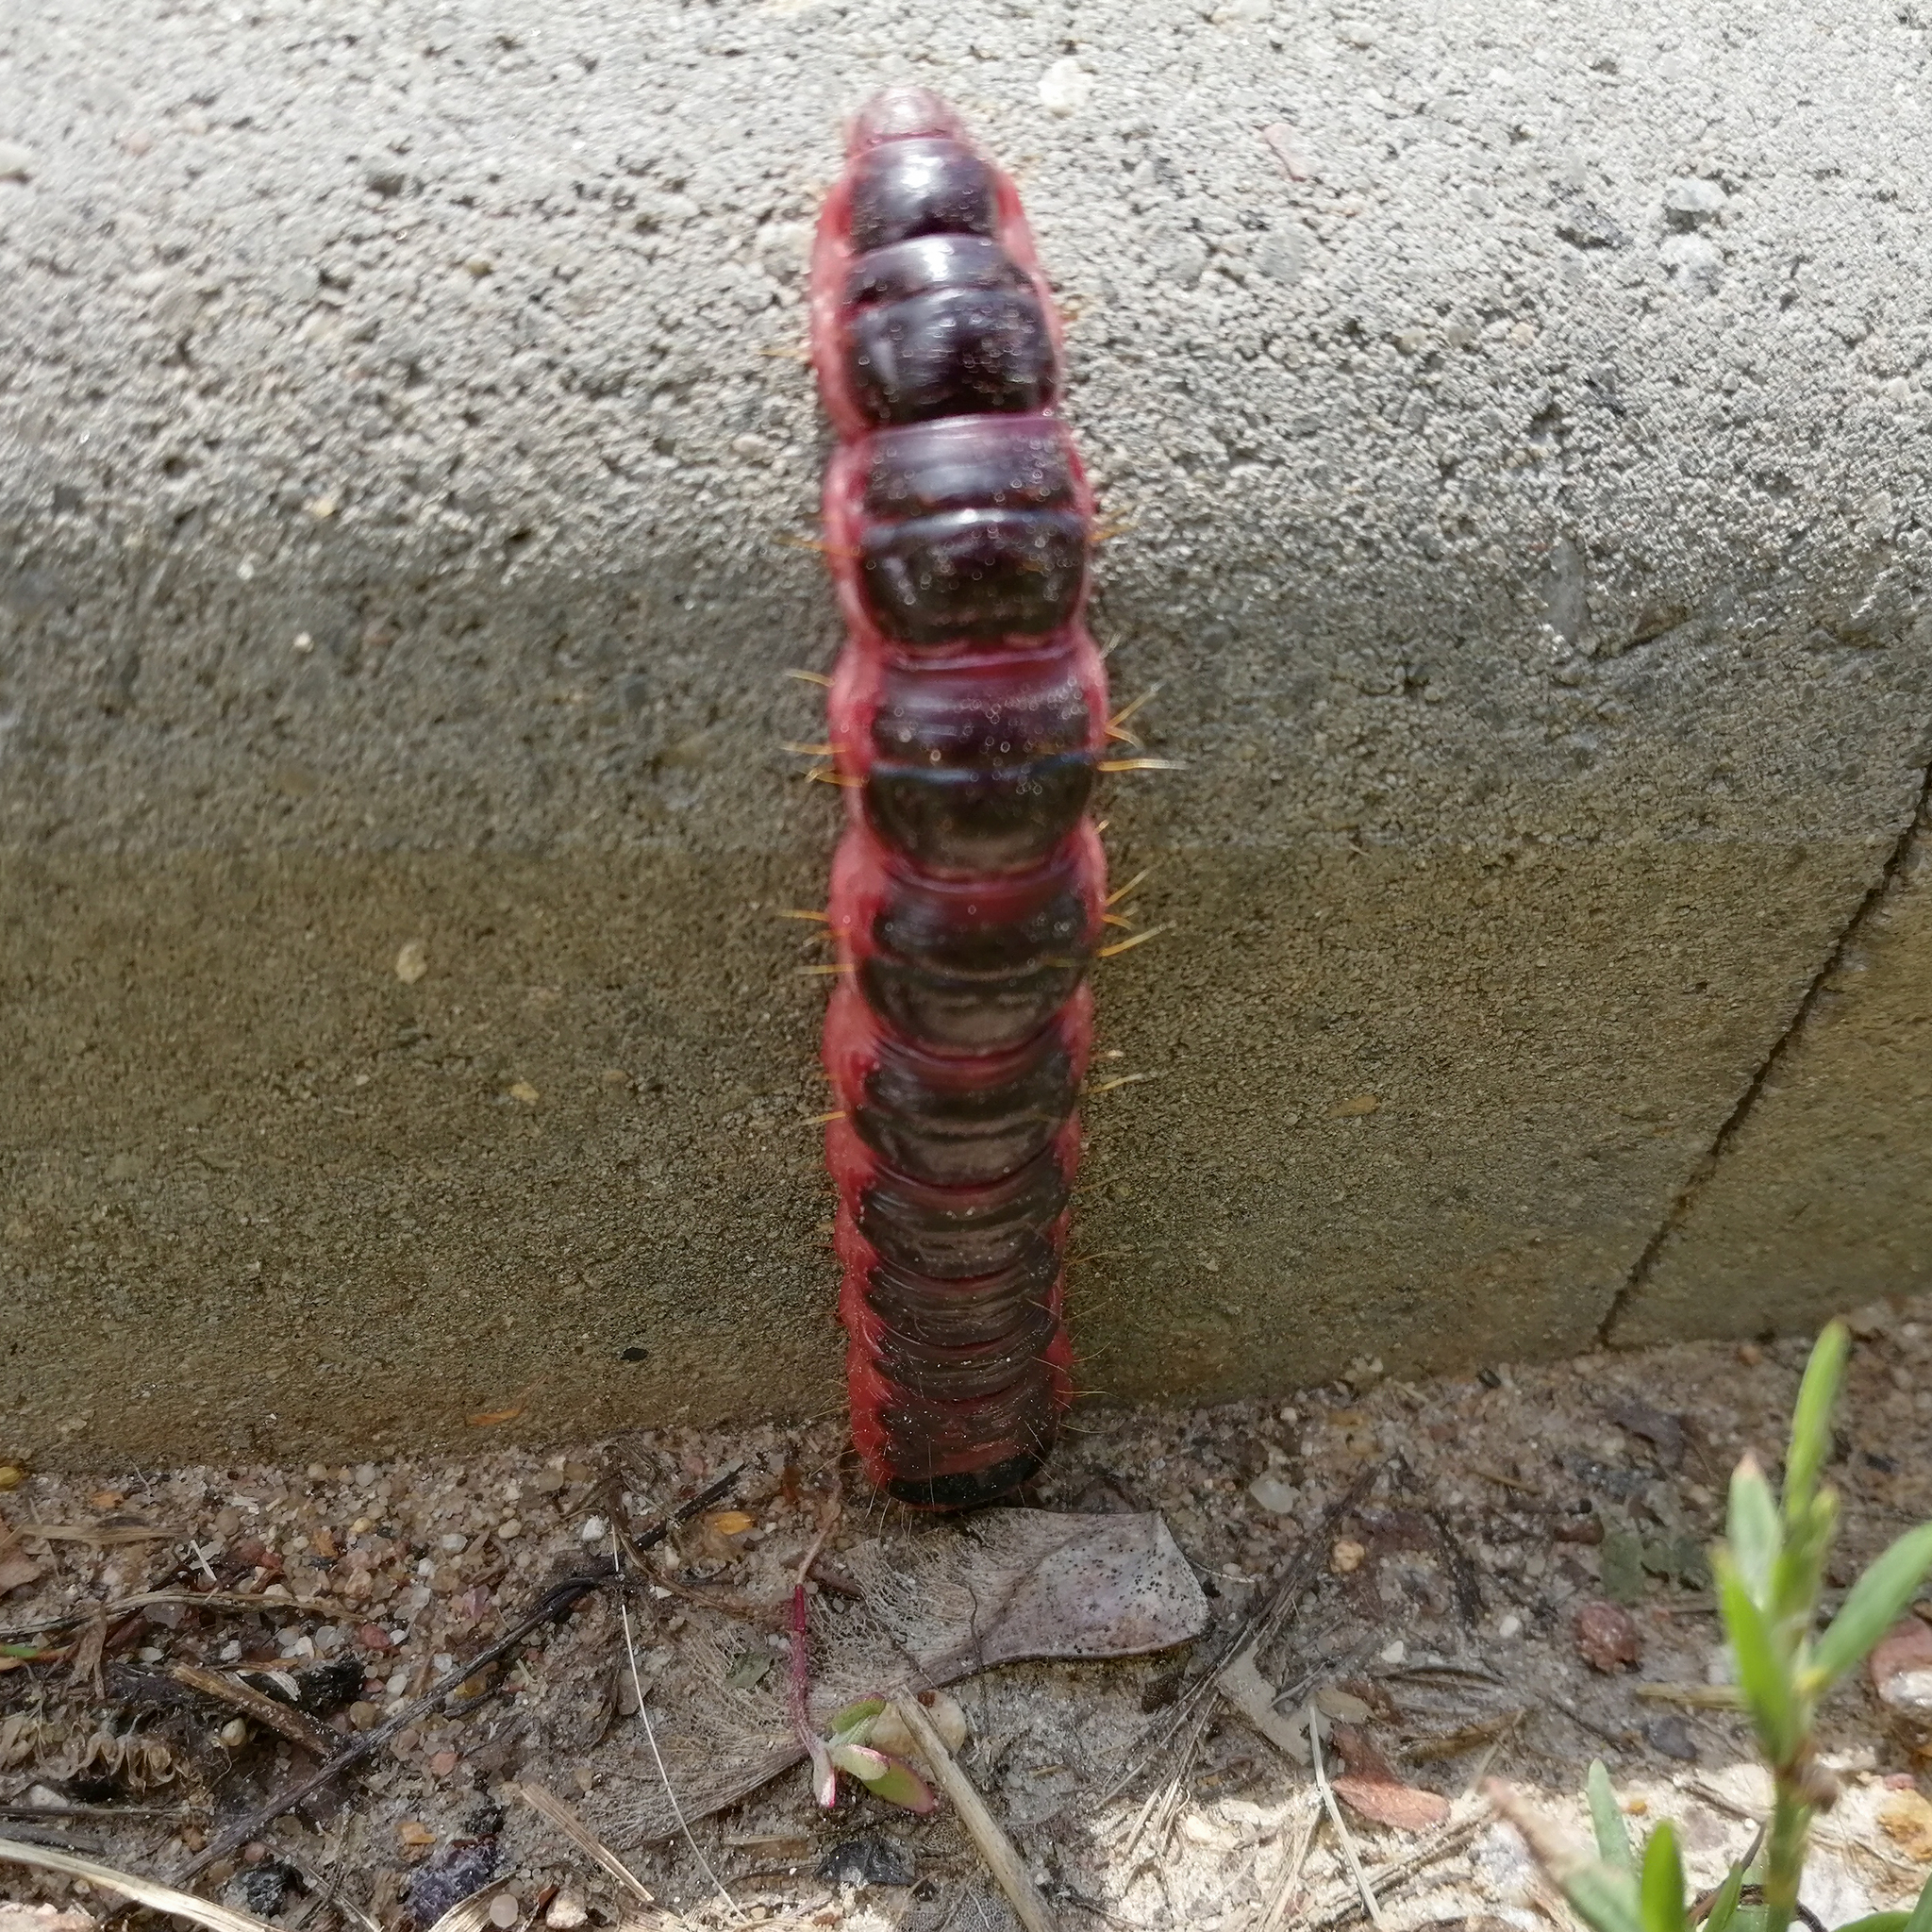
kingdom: Animalia
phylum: Arthropoda
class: Insecta
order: Lepidoptera
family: Cossidae
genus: Cossus
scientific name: Cossus cossus
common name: Goat moth
